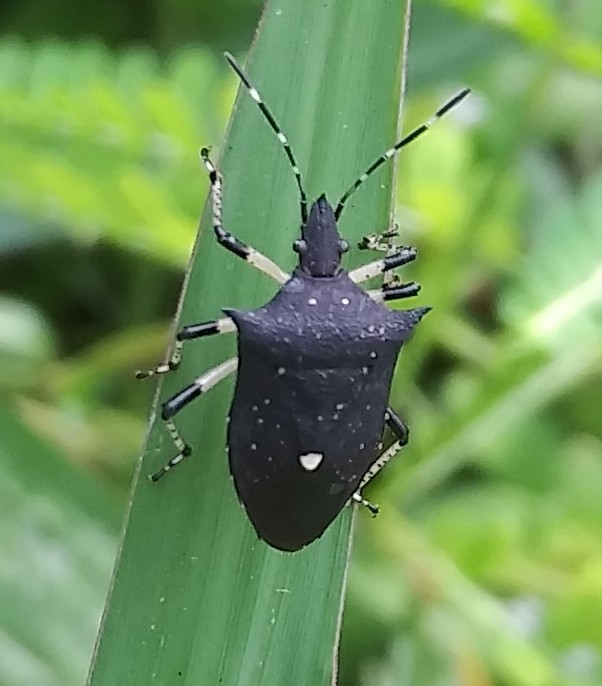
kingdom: Animalia
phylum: Arthropoda
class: Insecta
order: Hemiptera
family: Pentatomidae
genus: Proxys
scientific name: Proxys punctulatus
